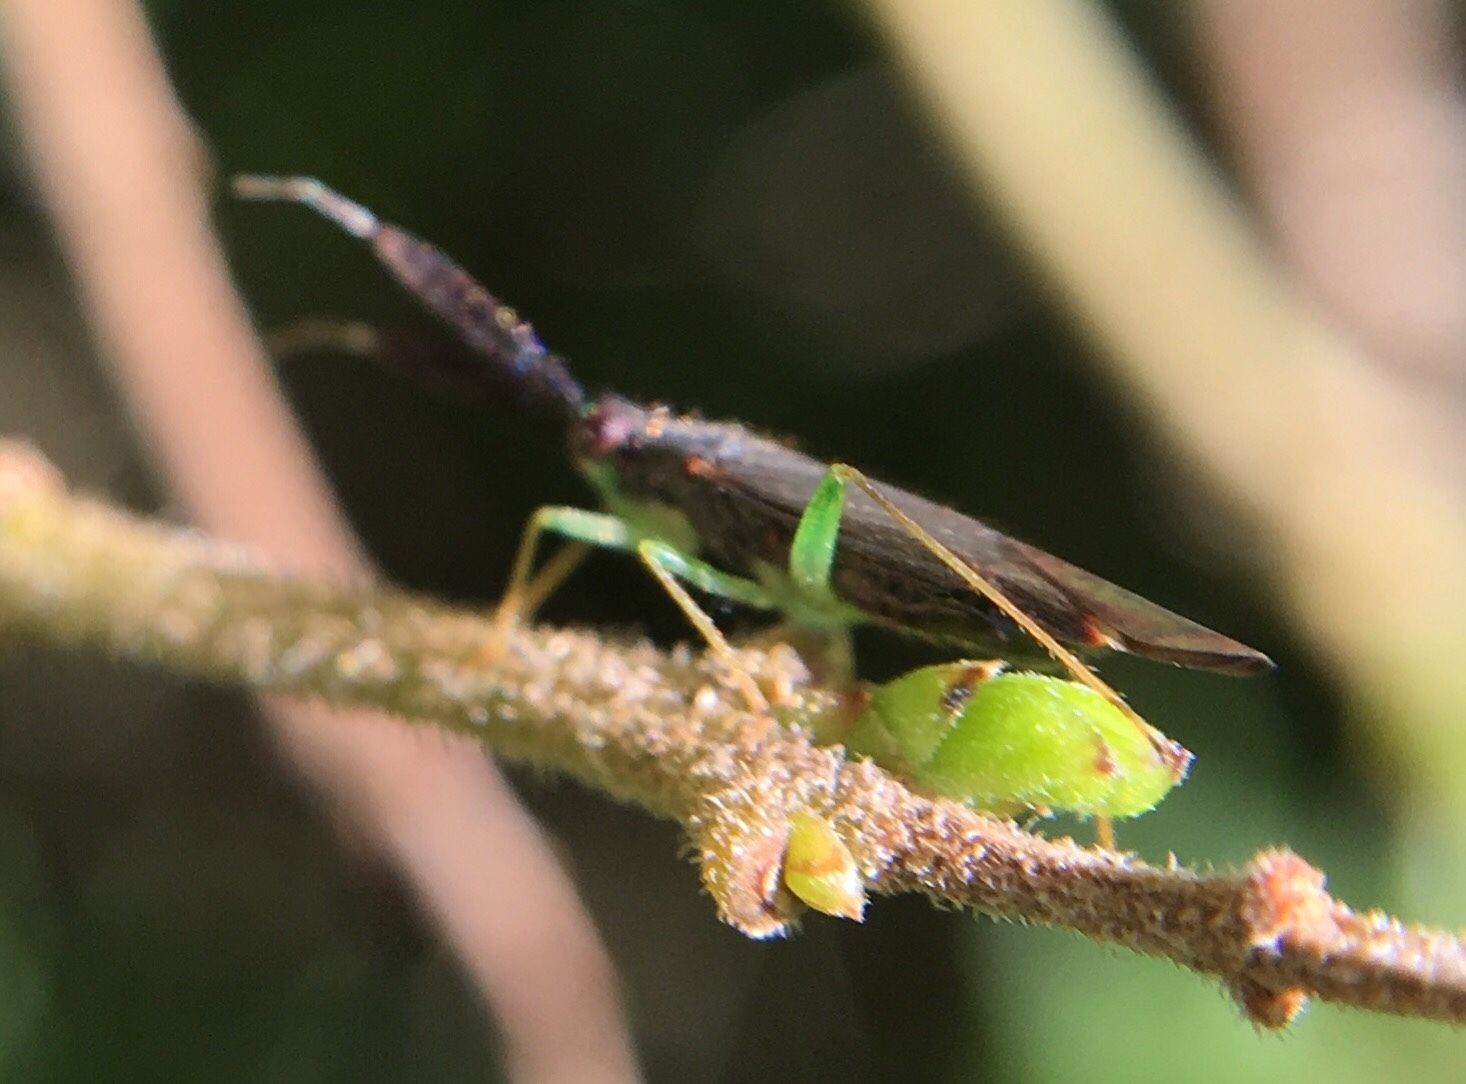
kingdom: Animalia
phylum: Arthropoda
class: Insecta
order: Hemiptera
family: Miridae
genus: Heterotoma
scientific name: Heterotoma planicornis
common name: Plant bug
